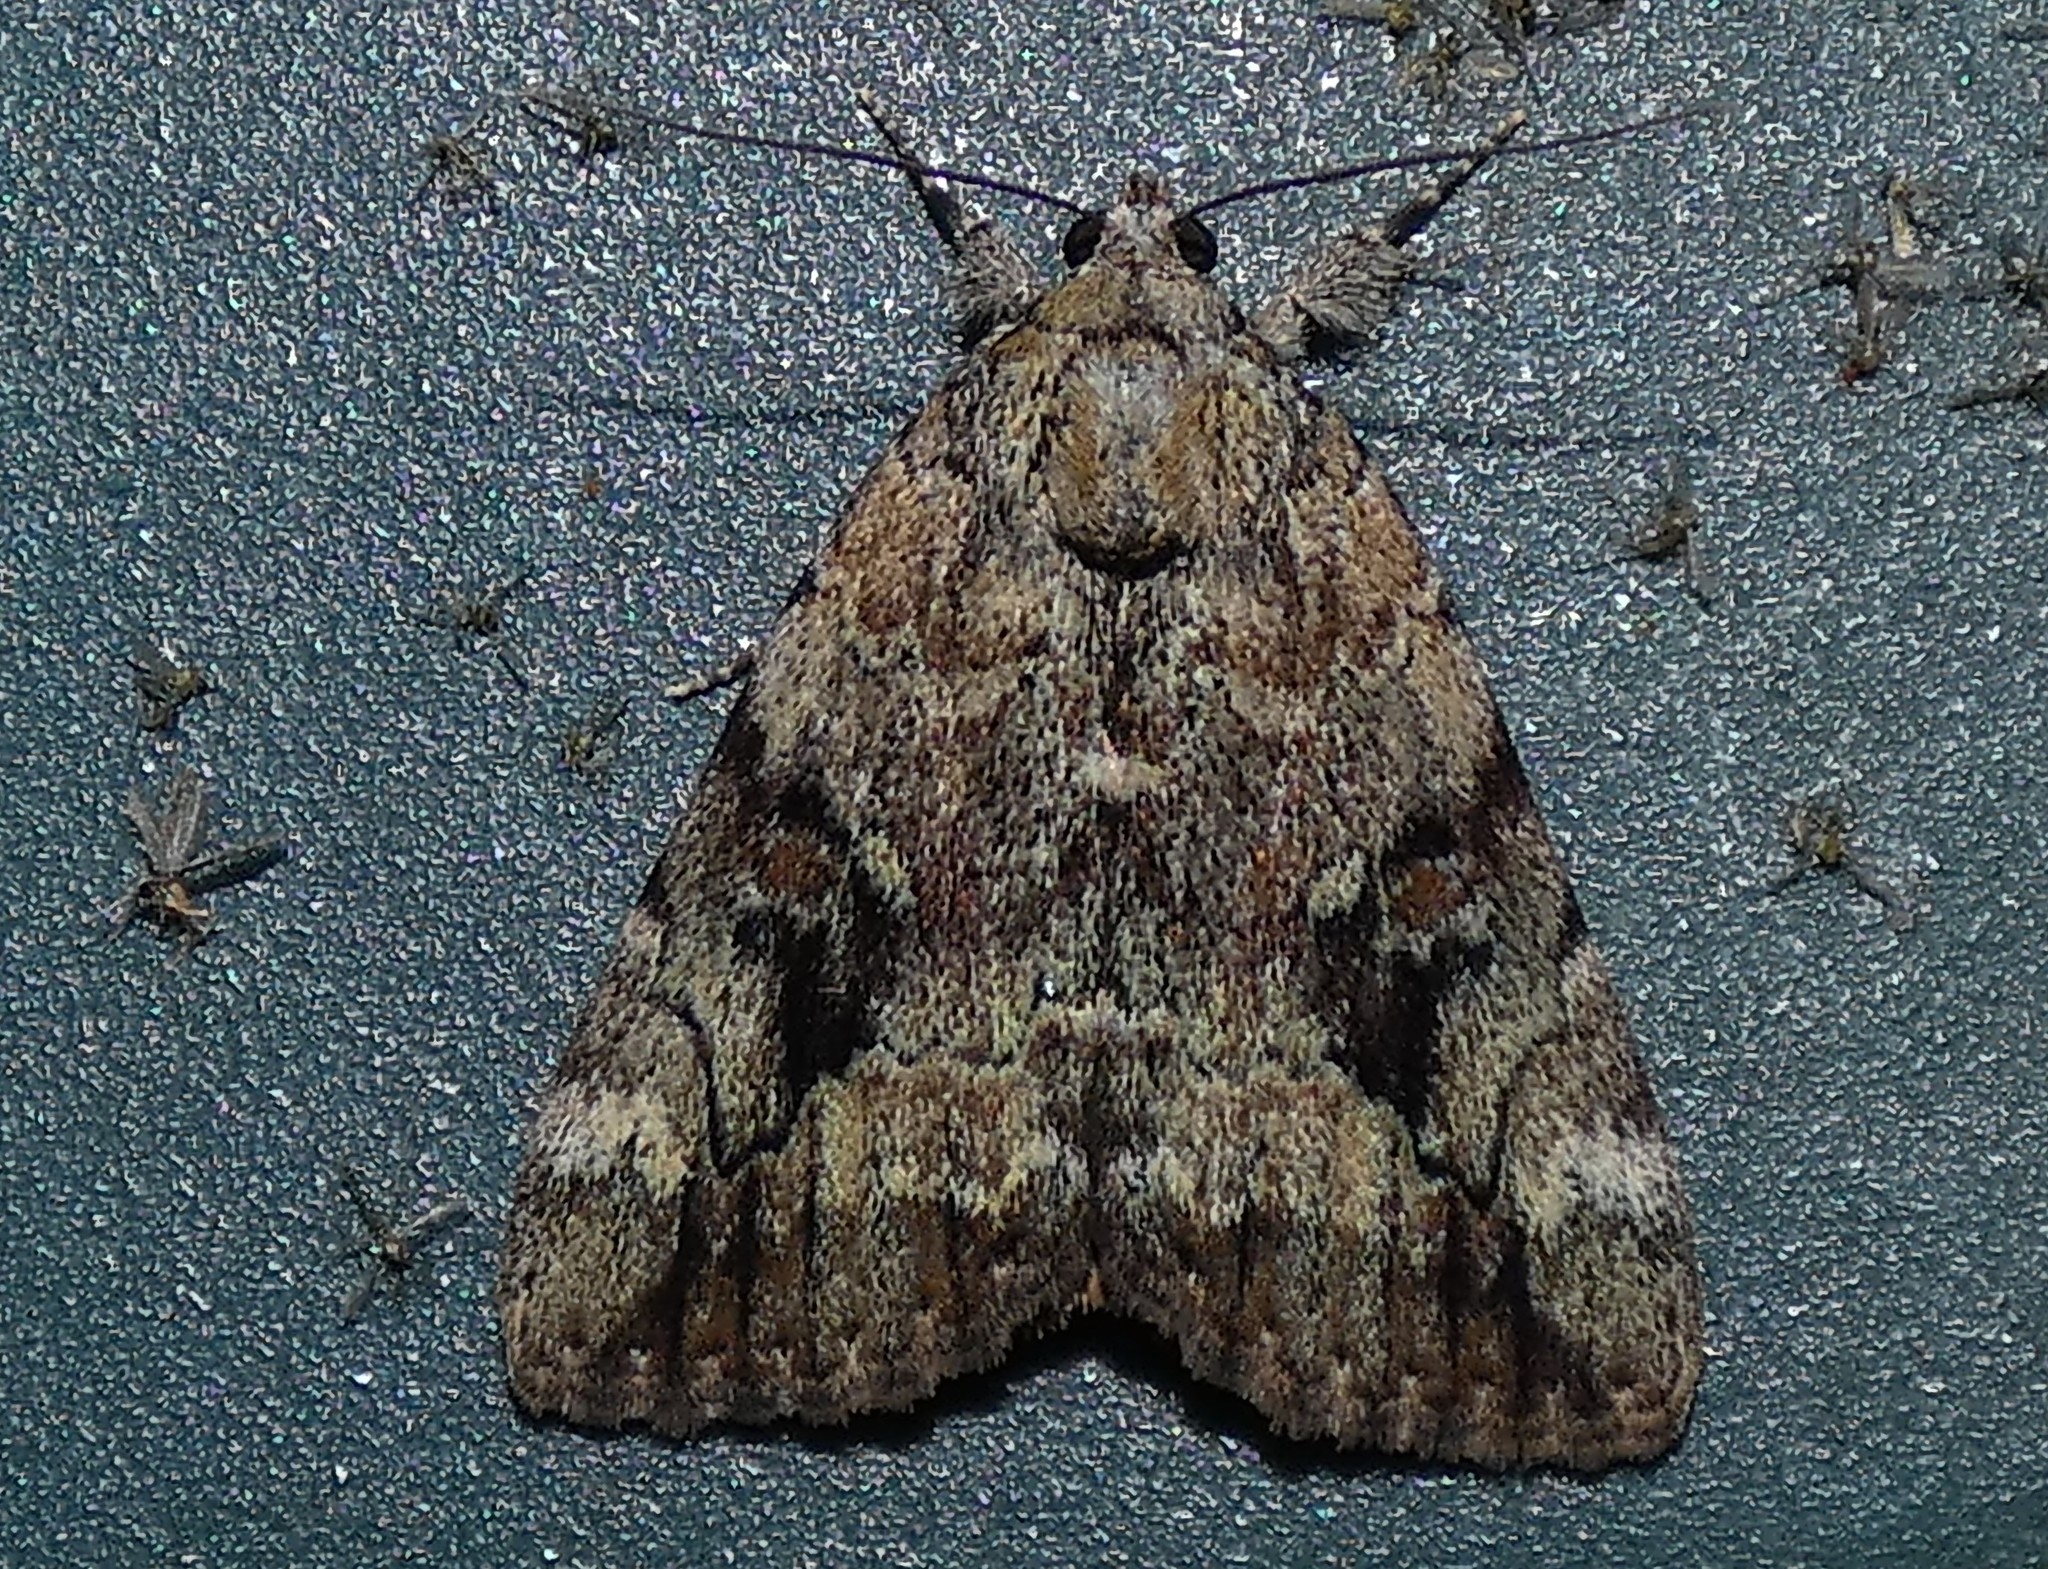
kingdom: Animalia
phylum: Arthropoda
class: Insecta
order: Lepidoptera
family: Erebidae
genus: Catocala
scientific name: Catocala micronympha
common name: Little nymph underwing
